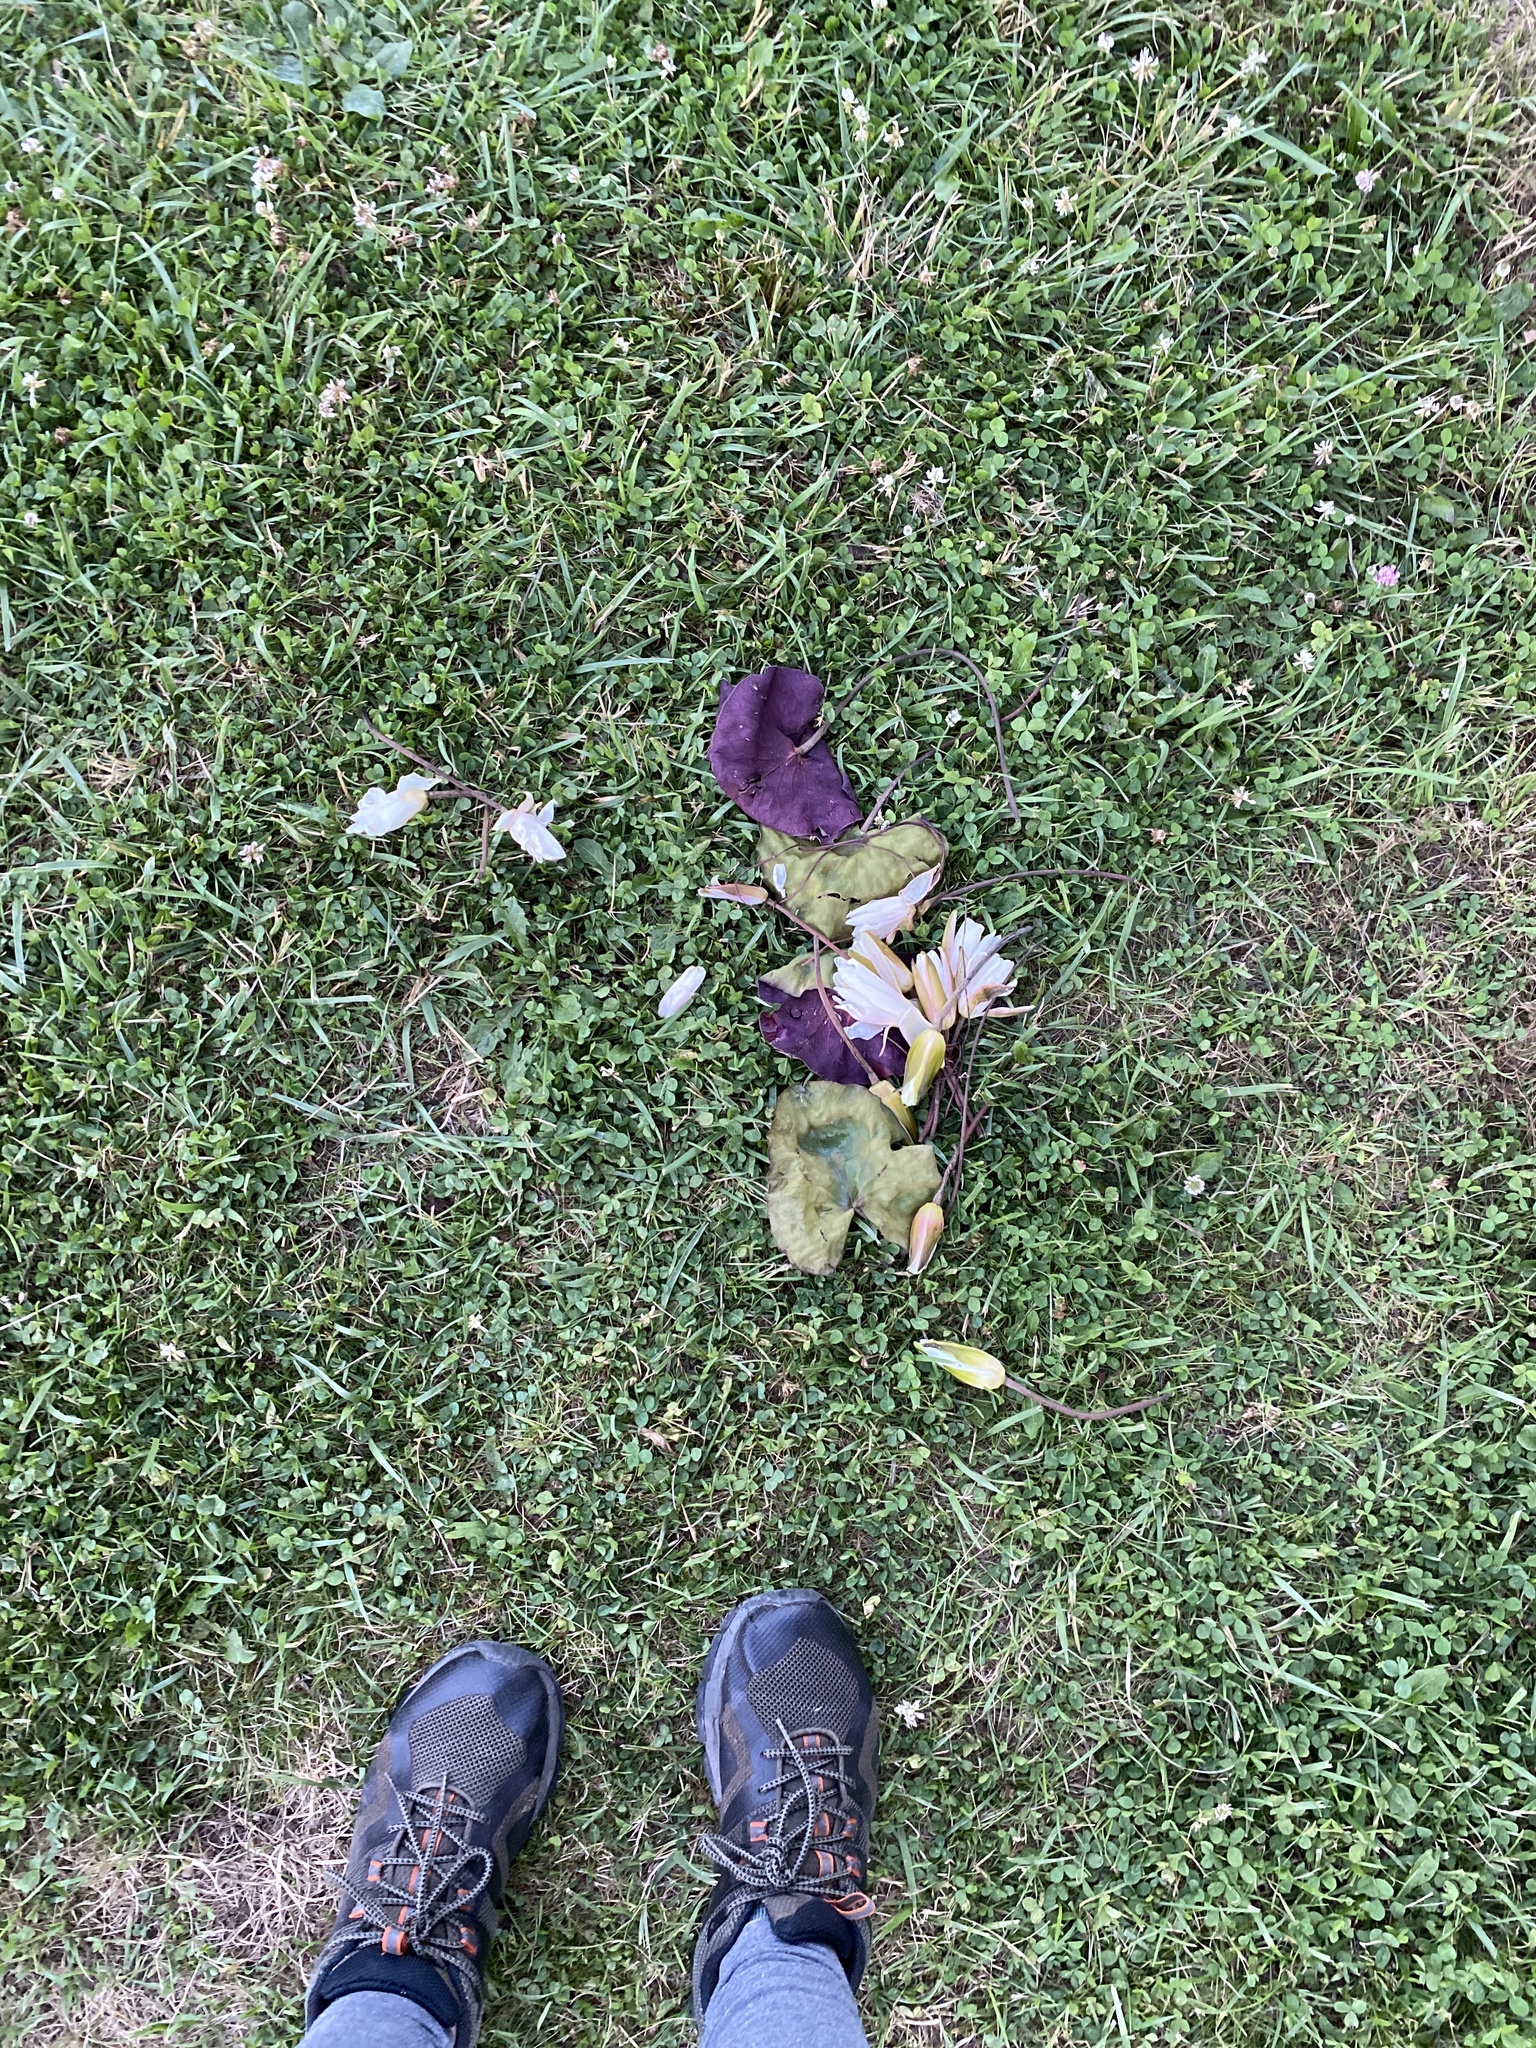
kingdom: Plantae
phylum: Tracheophyta
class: Magnoliopsida
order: Nymphaeales
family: Nymphaeaceae
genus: Nymphaea
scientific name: Nymphaea odorata
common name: Fragrant water-lily
